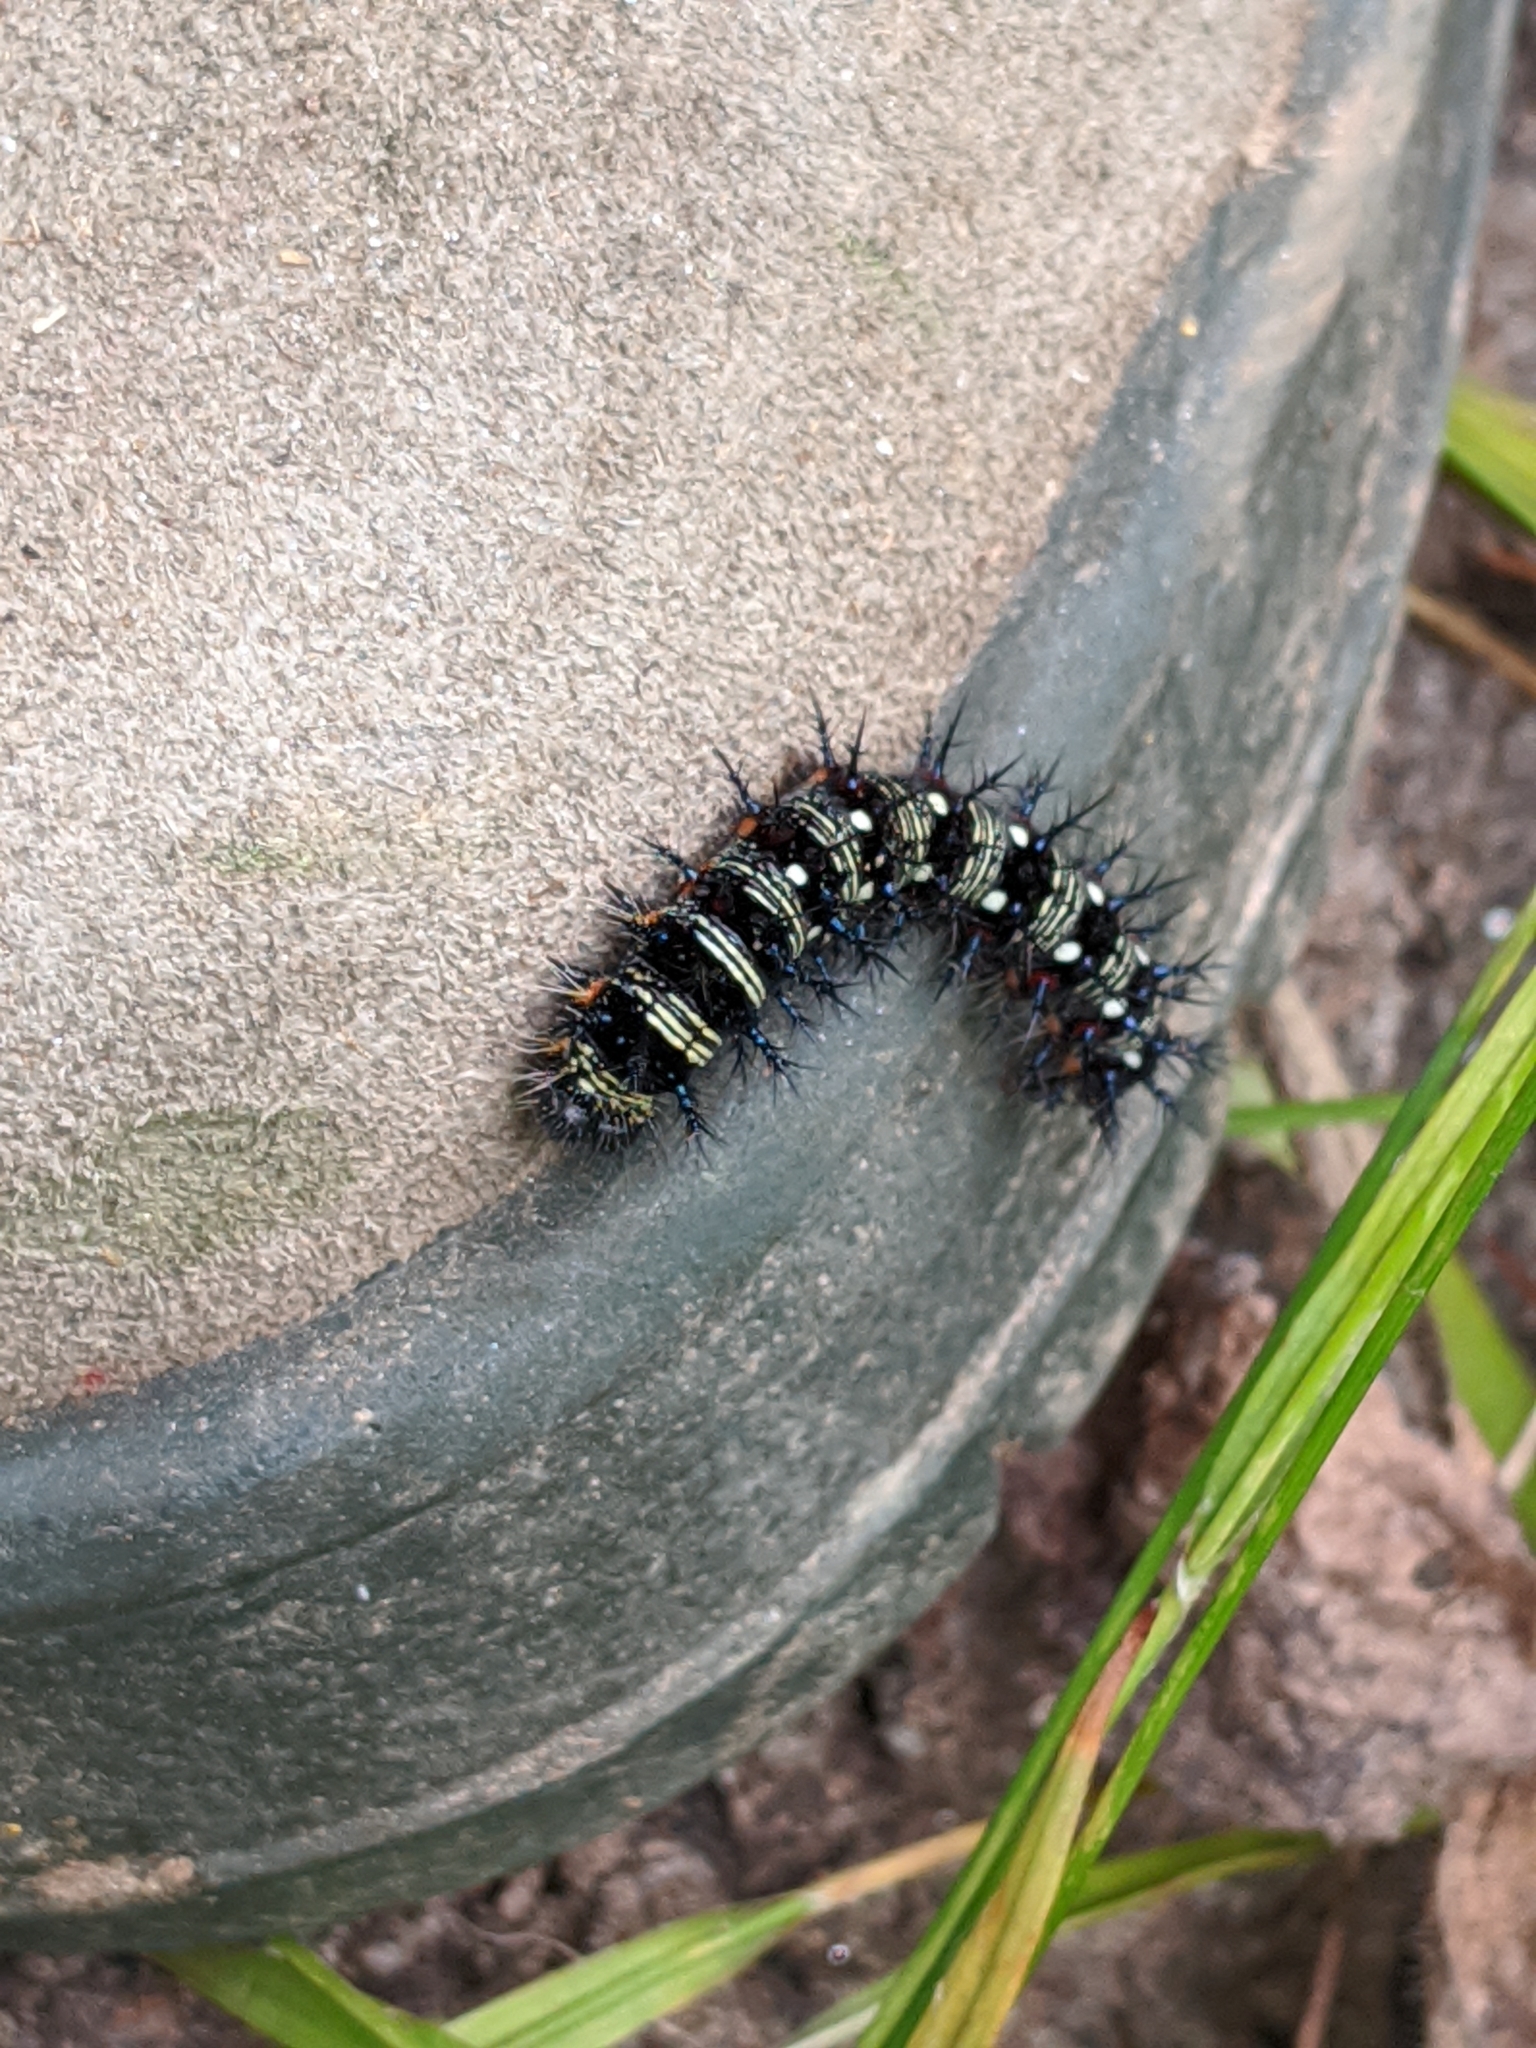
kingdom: Animalia
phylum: Arthropoda
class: Insecta
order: Lepidoptera
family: Nymphalidae
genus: Vanessa
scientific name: Vanessa virginiensis
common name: American lady
